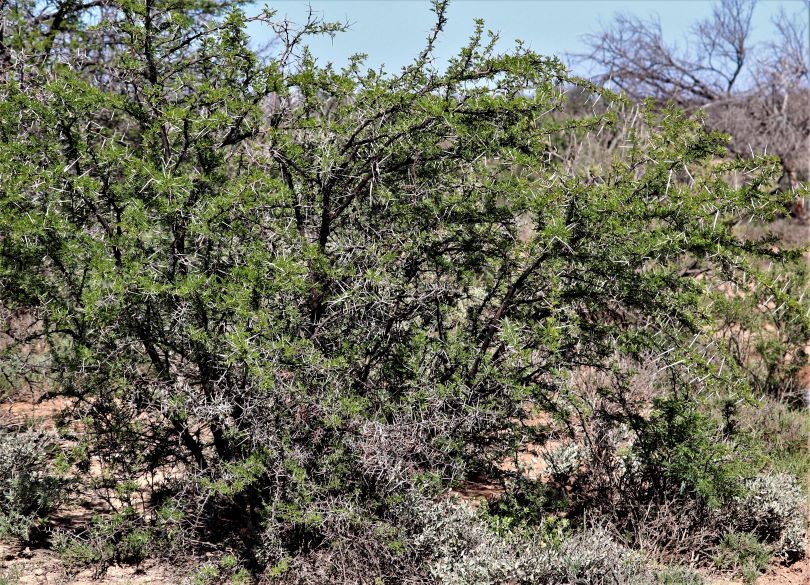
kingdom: Plantae
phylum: Tracheophyta
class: Magnoliopsida
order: Fabales
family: Fabaceae
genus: Vachellia
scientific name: Vachellia karroo
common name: Sweet thorn
